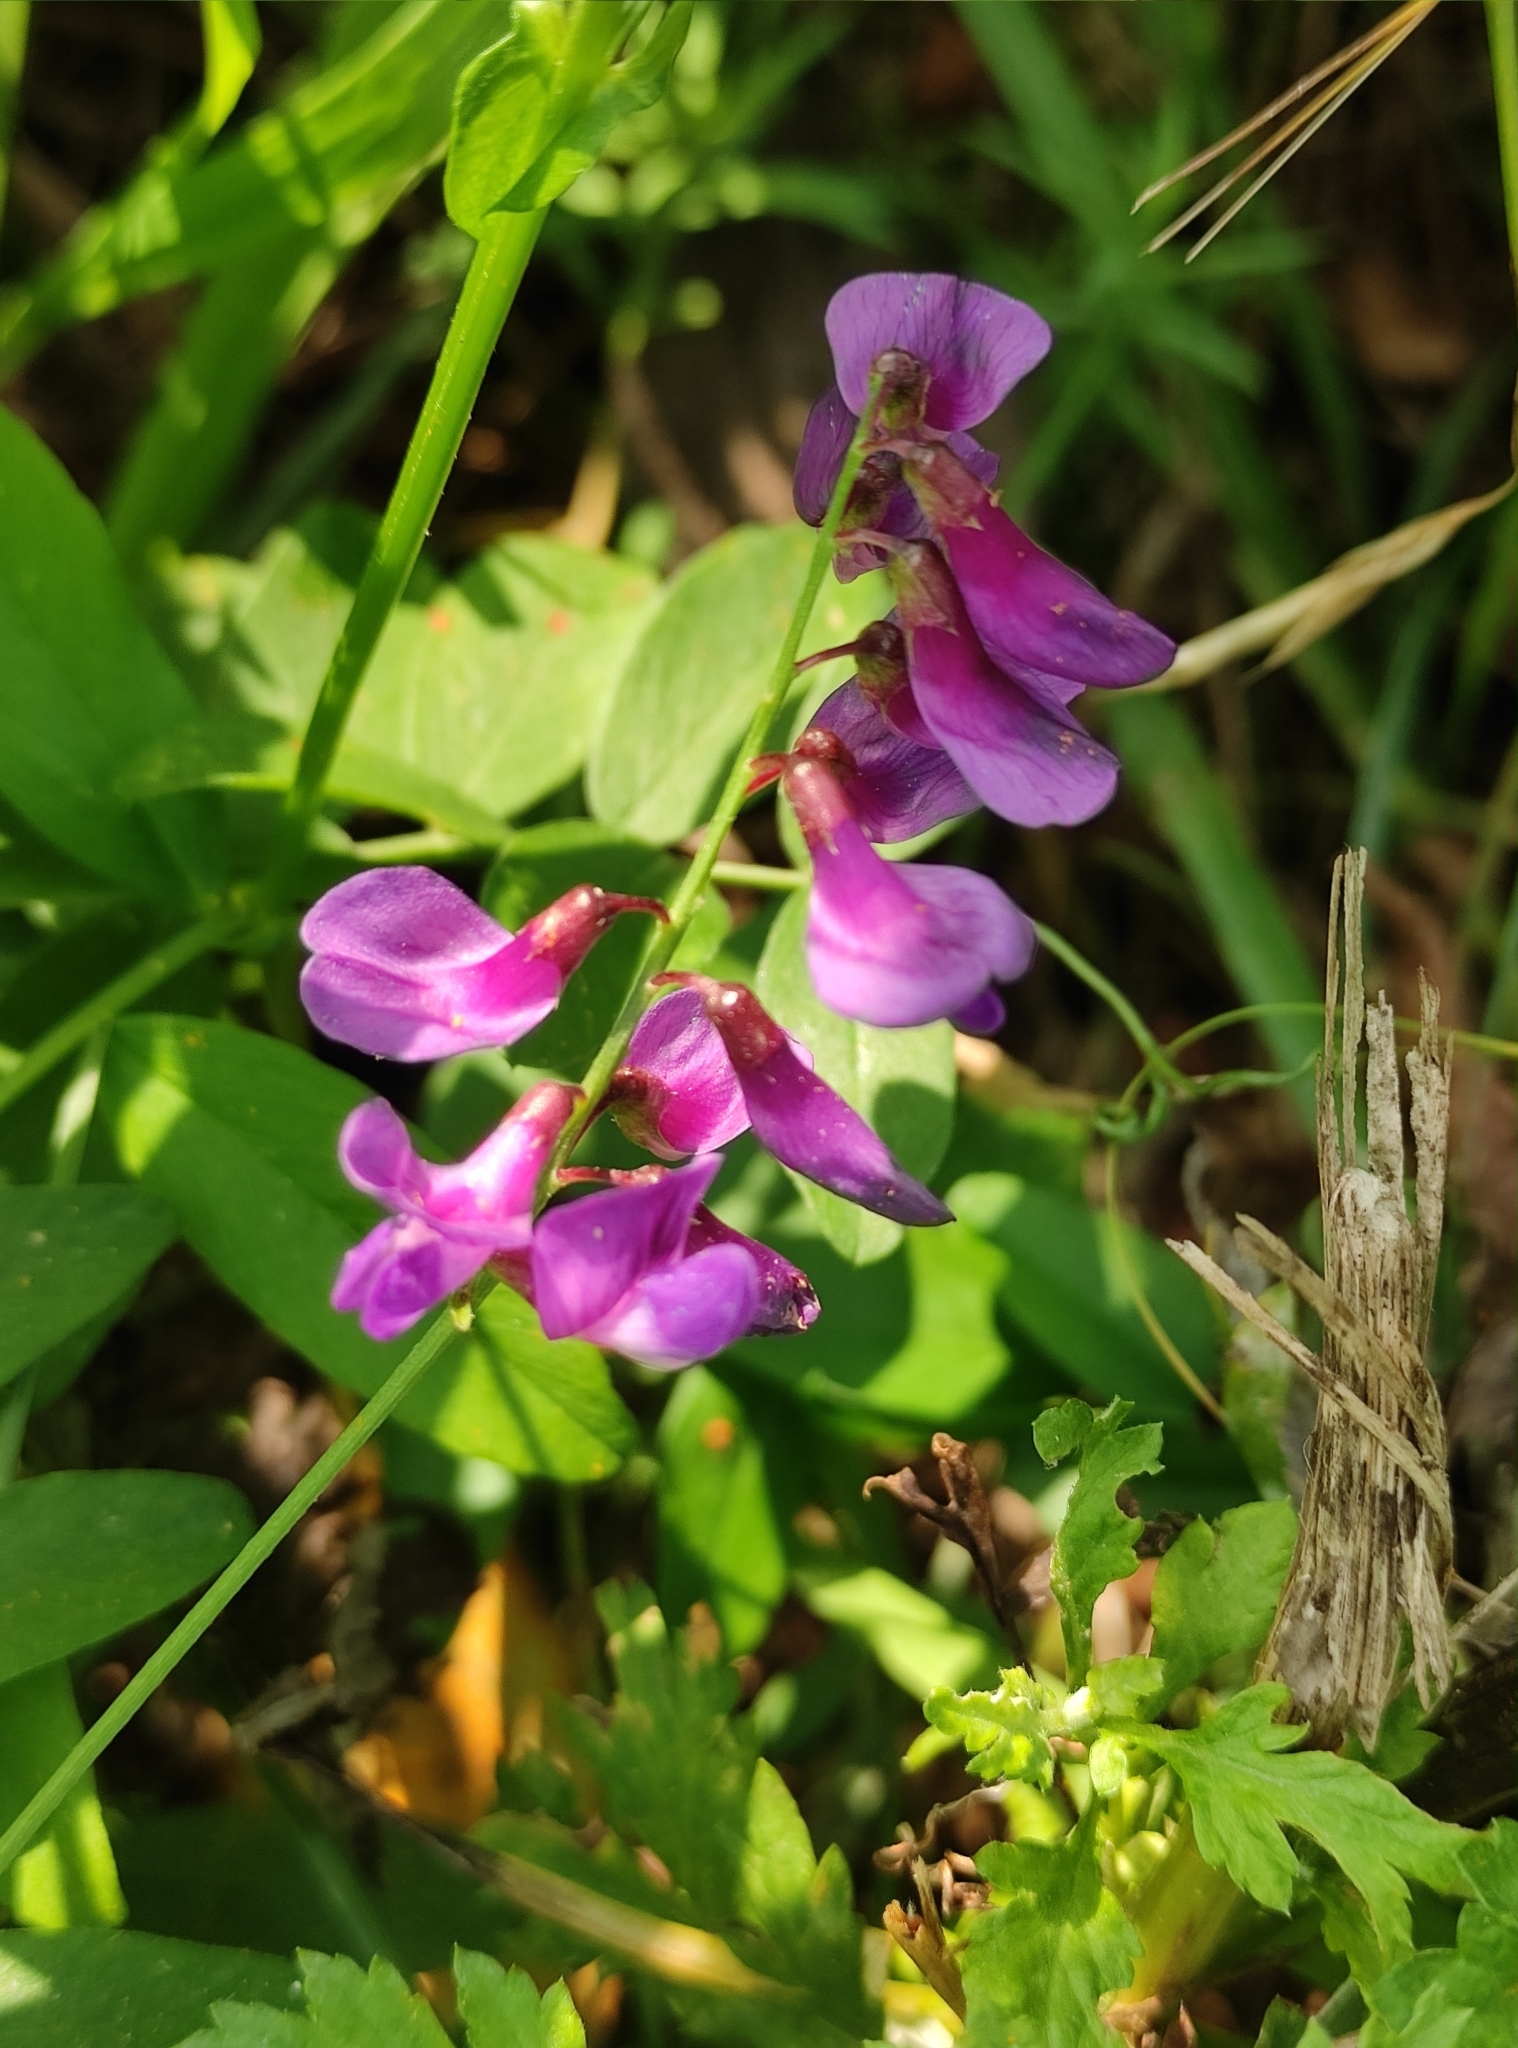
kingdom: Plantae
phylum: Tracheophyta
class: Magnoliopsida
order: Fabales
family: Fabaceae
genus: Vicia
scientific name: Vicia amoena
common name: Cheder ebs
